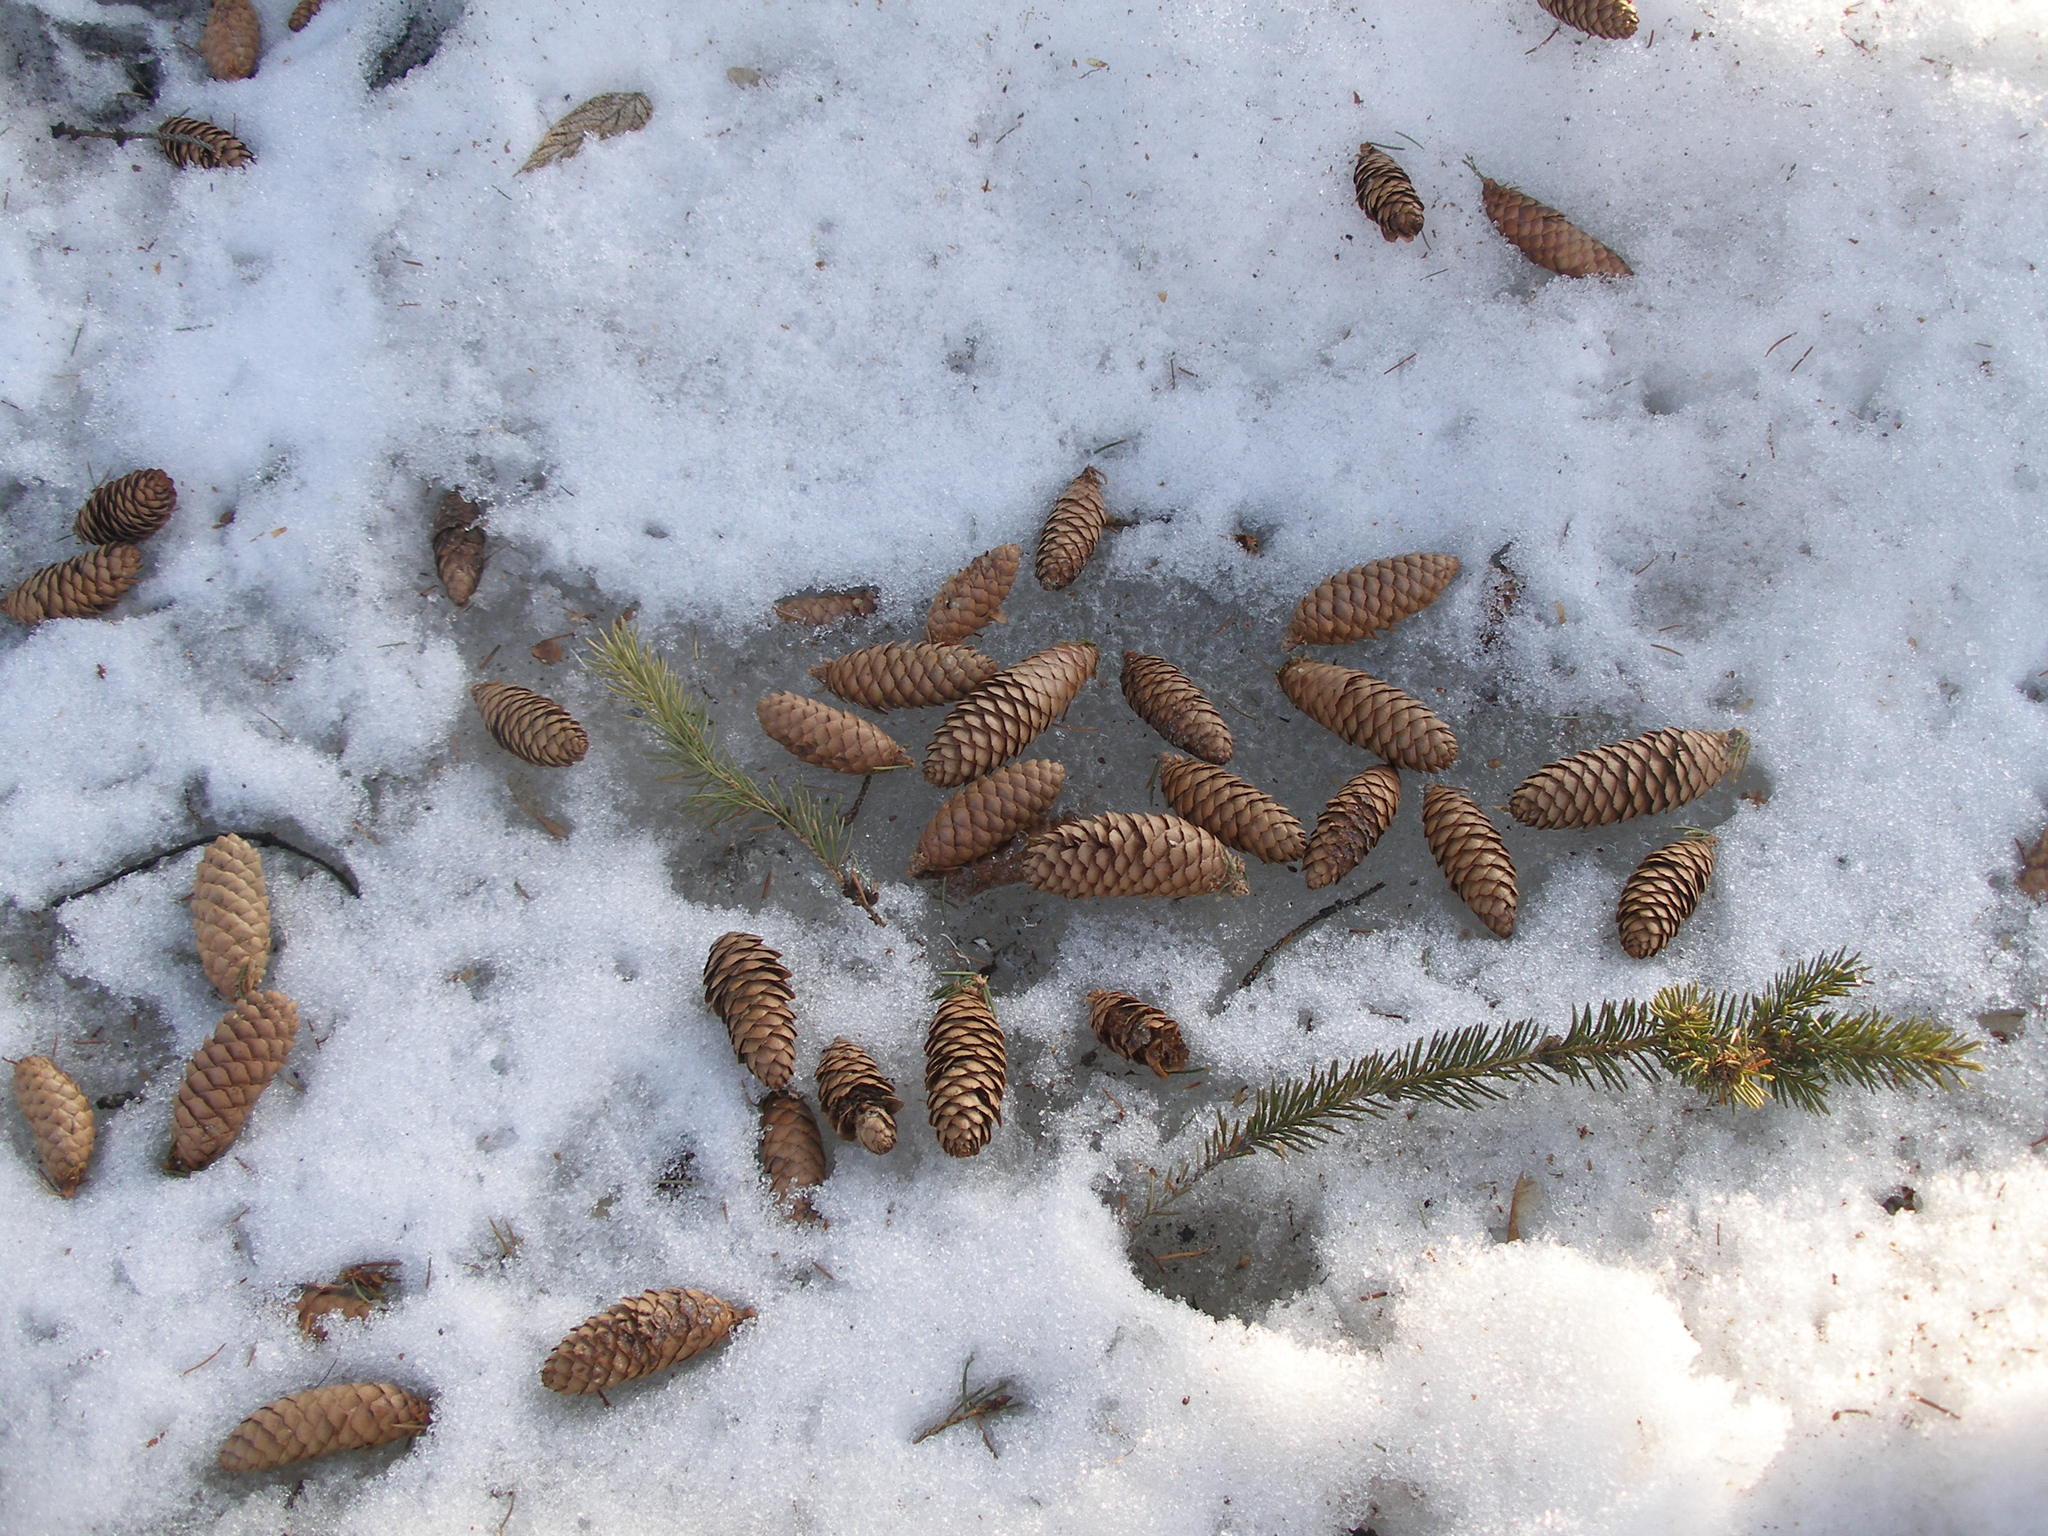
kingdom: Plantae
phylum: Tracheophyta
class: Pinopsida
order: Pinales
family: Pinaceae
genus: Picea
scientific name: Picea abies
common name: Norway spruce
